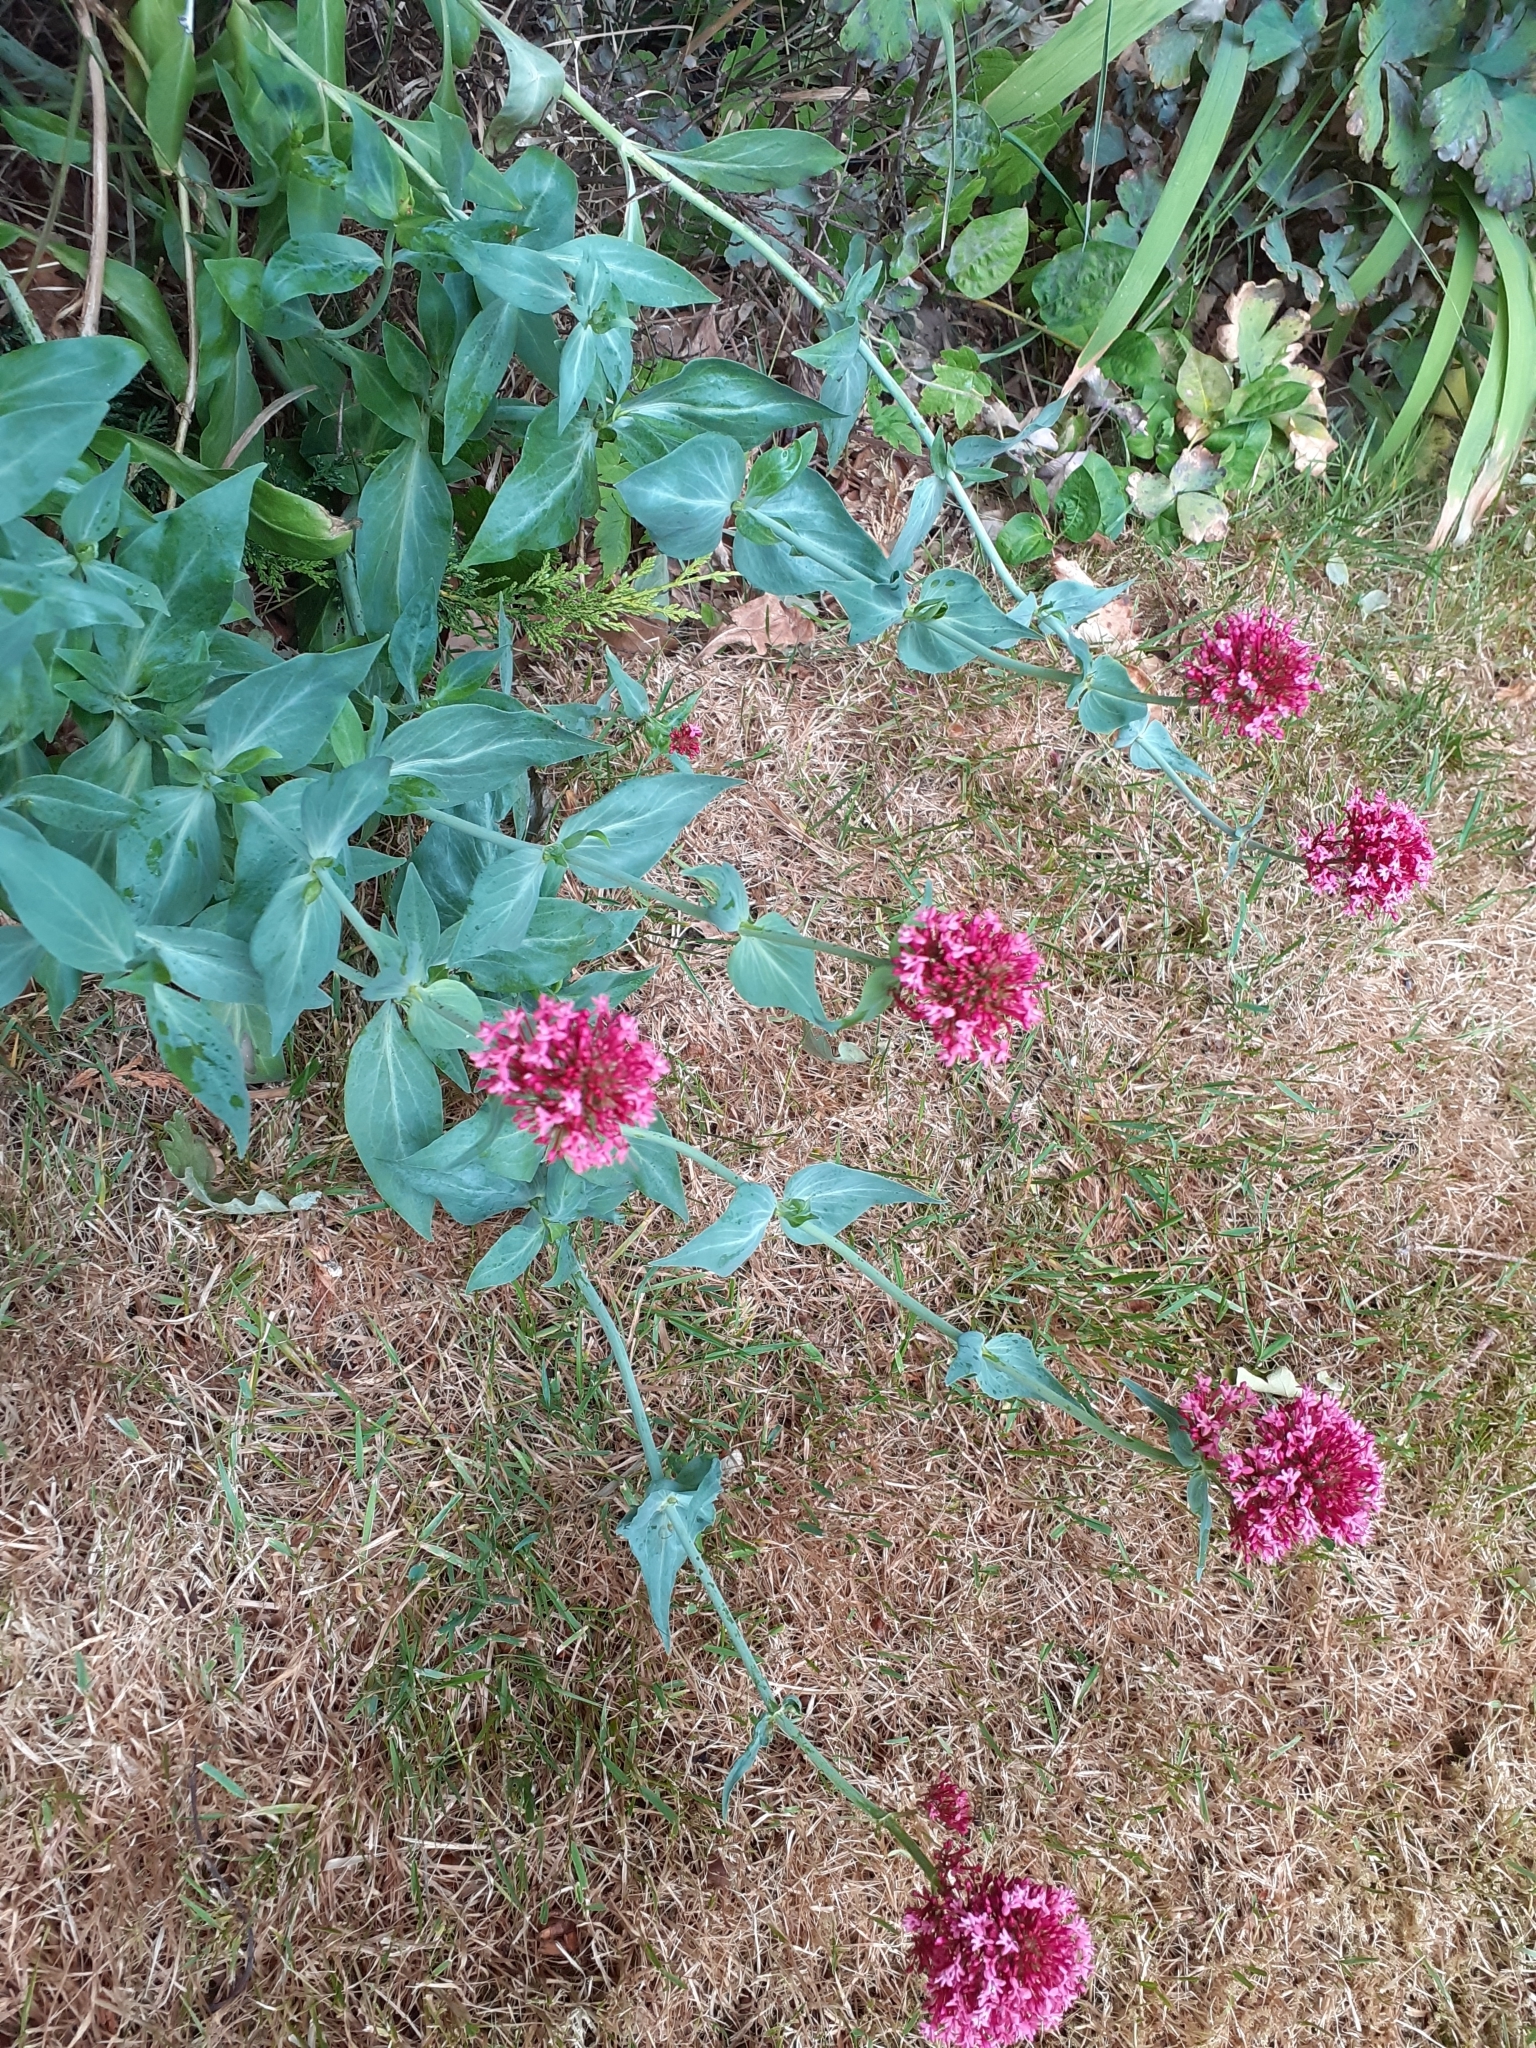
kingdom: Plantae
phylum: Tracheophyta
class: Magnoliopsida
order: Dipsacales
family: Caprifoliaceae
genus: Centranthus
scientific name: Centranthus ruber
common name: Red valerian
